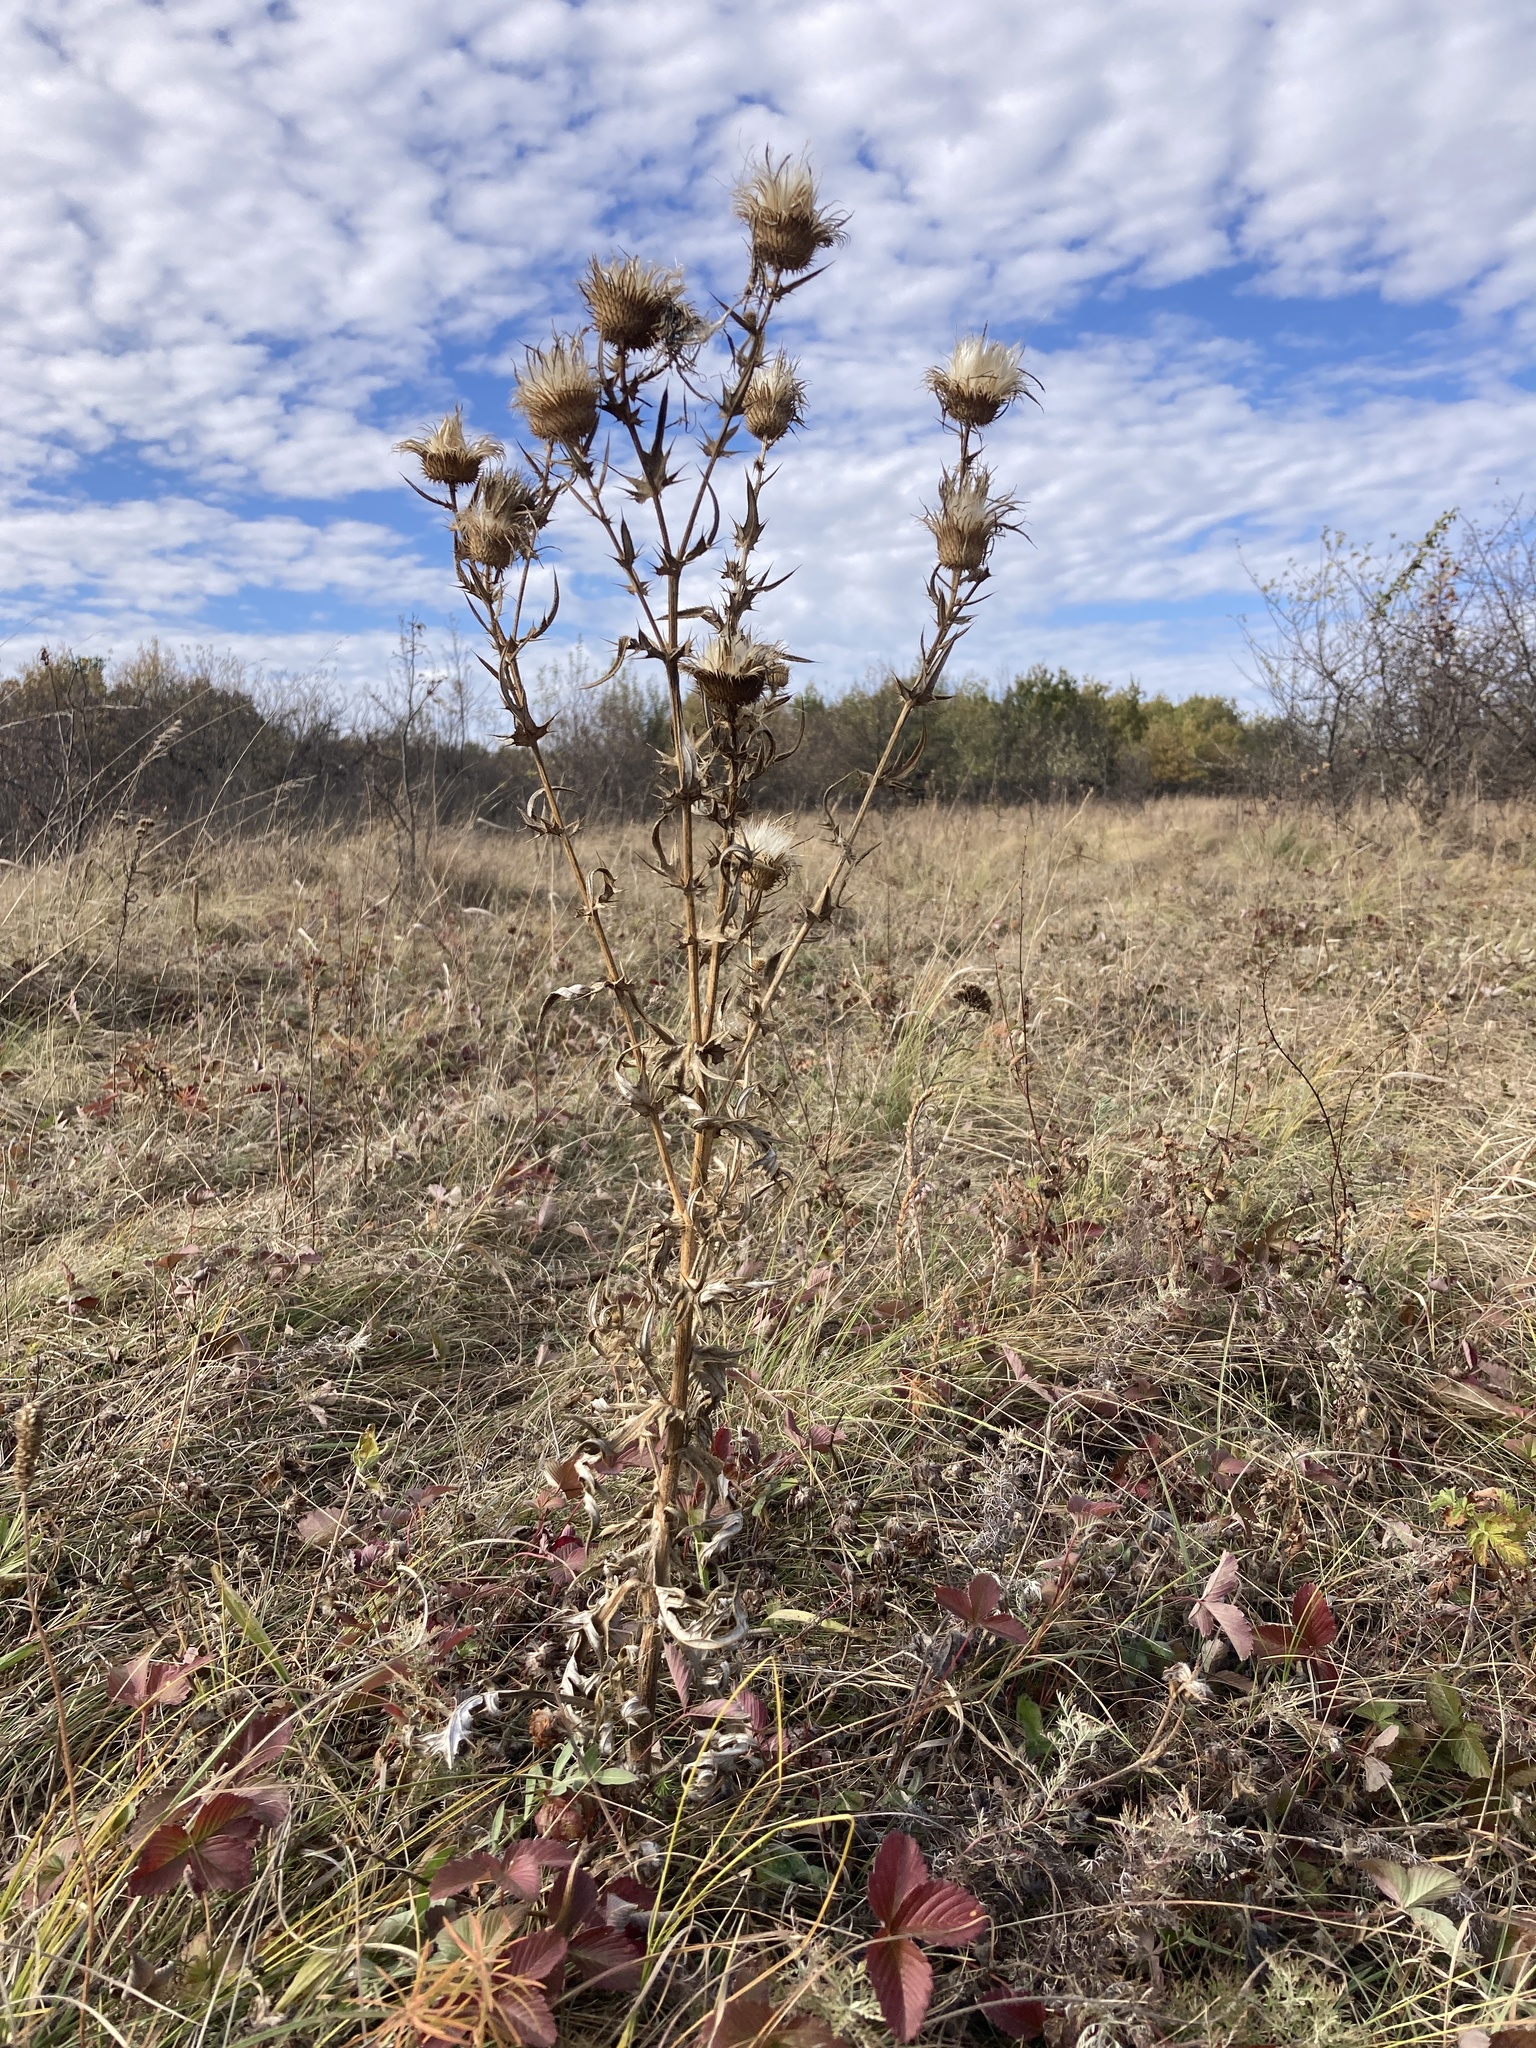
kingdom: Plantae
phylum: Tracheophyta
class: Magnoliopsida
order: Asterales
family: Asteraceae
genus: Cirsium
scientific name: Cirsium serrulatum
